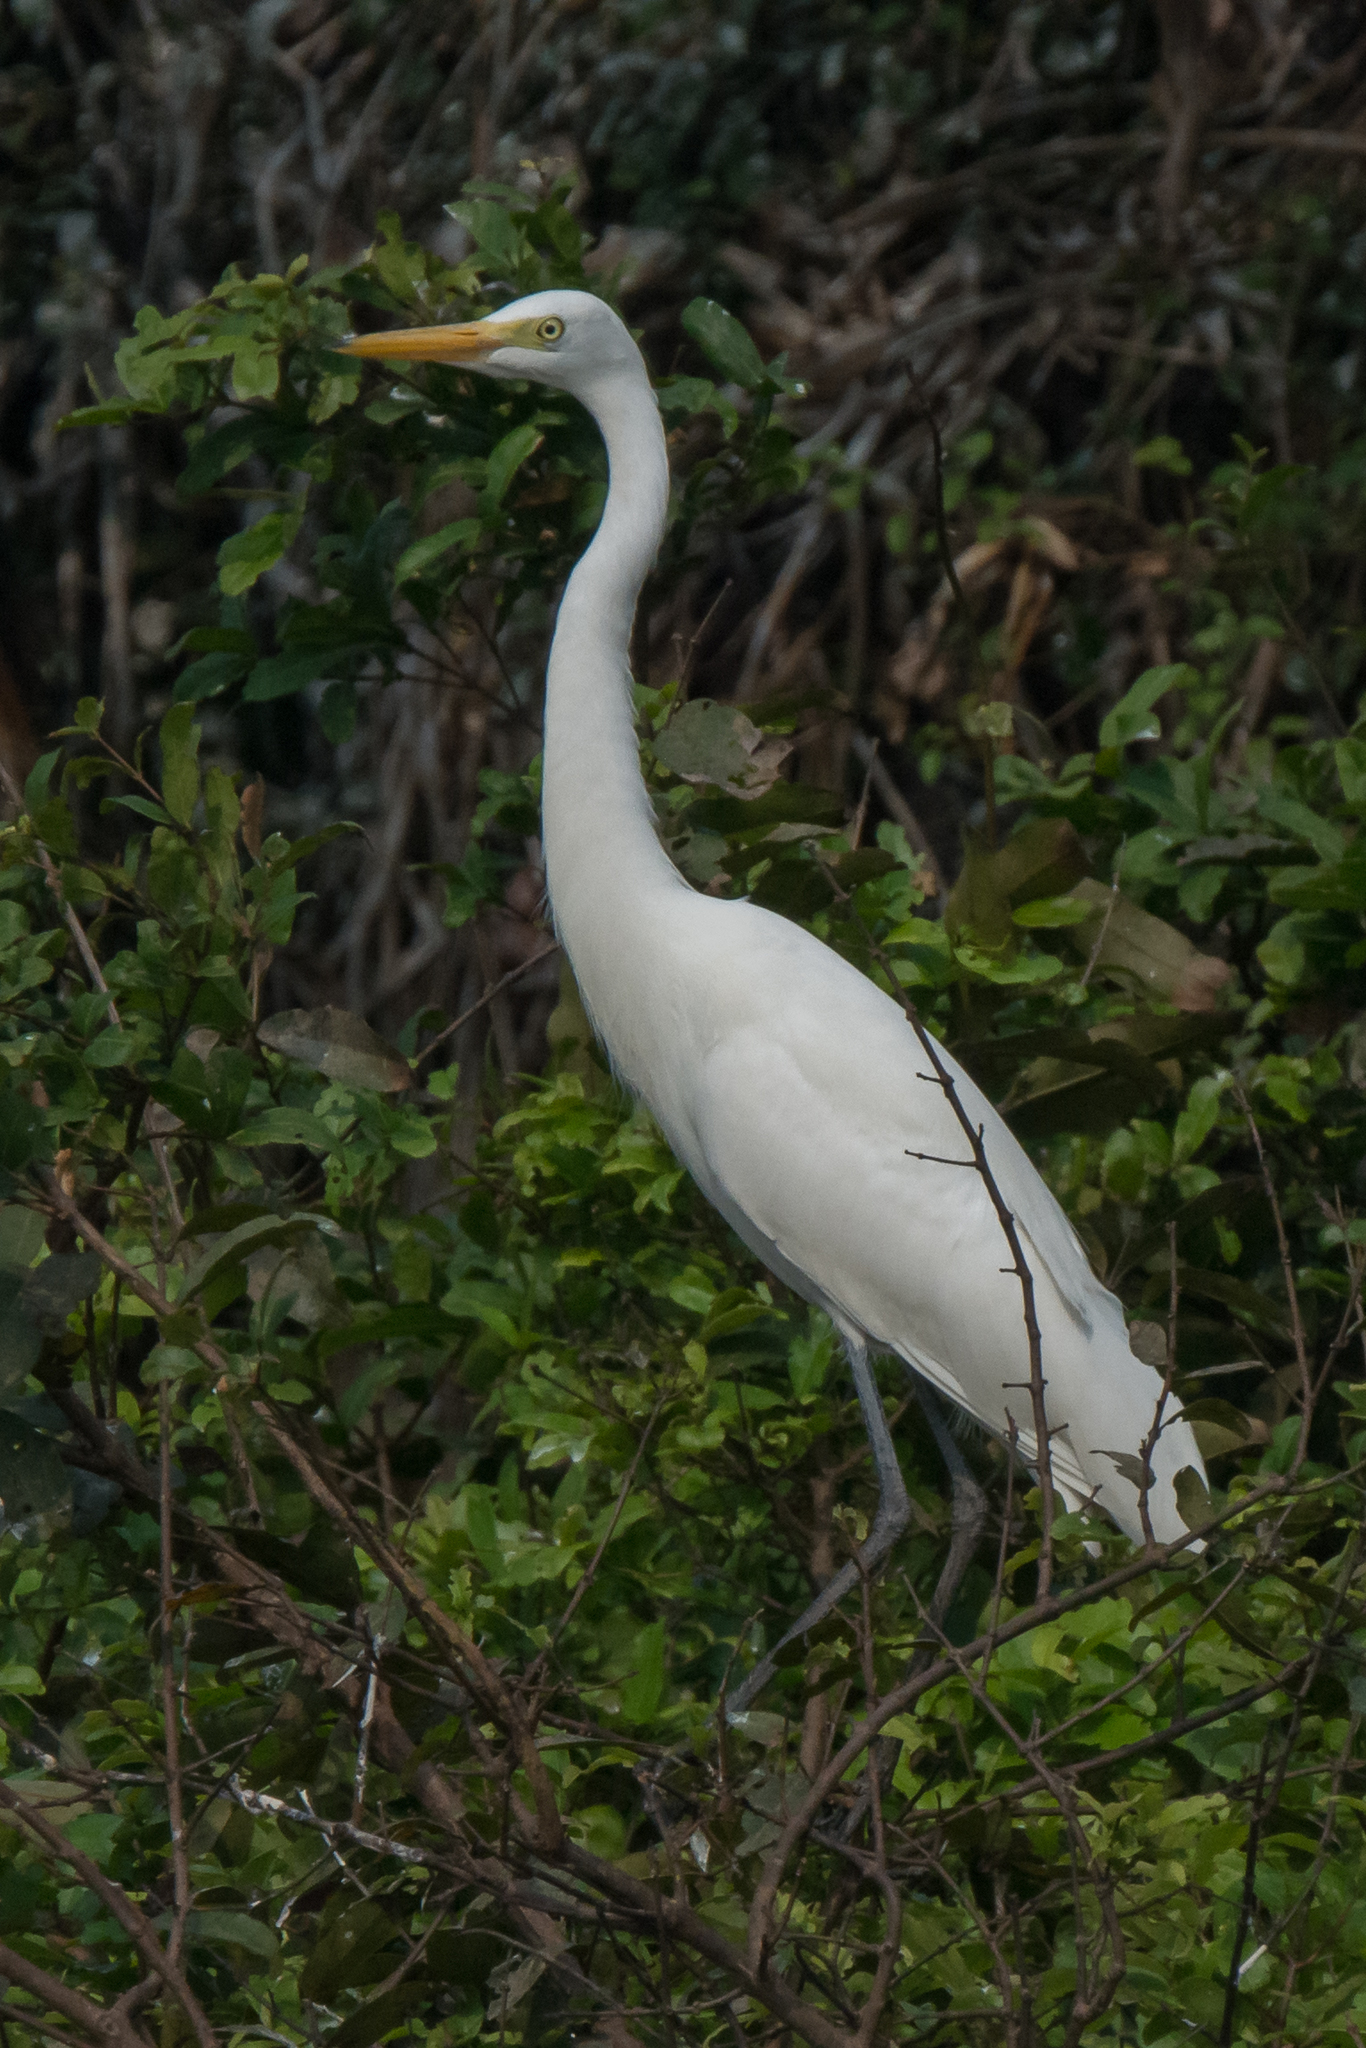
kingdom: Animalia
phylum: Chordata
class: Aves
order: Pelecaniformes
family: Ardeidae
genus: Egretta
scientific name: Egretta intermedia
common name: Intermediate egret
